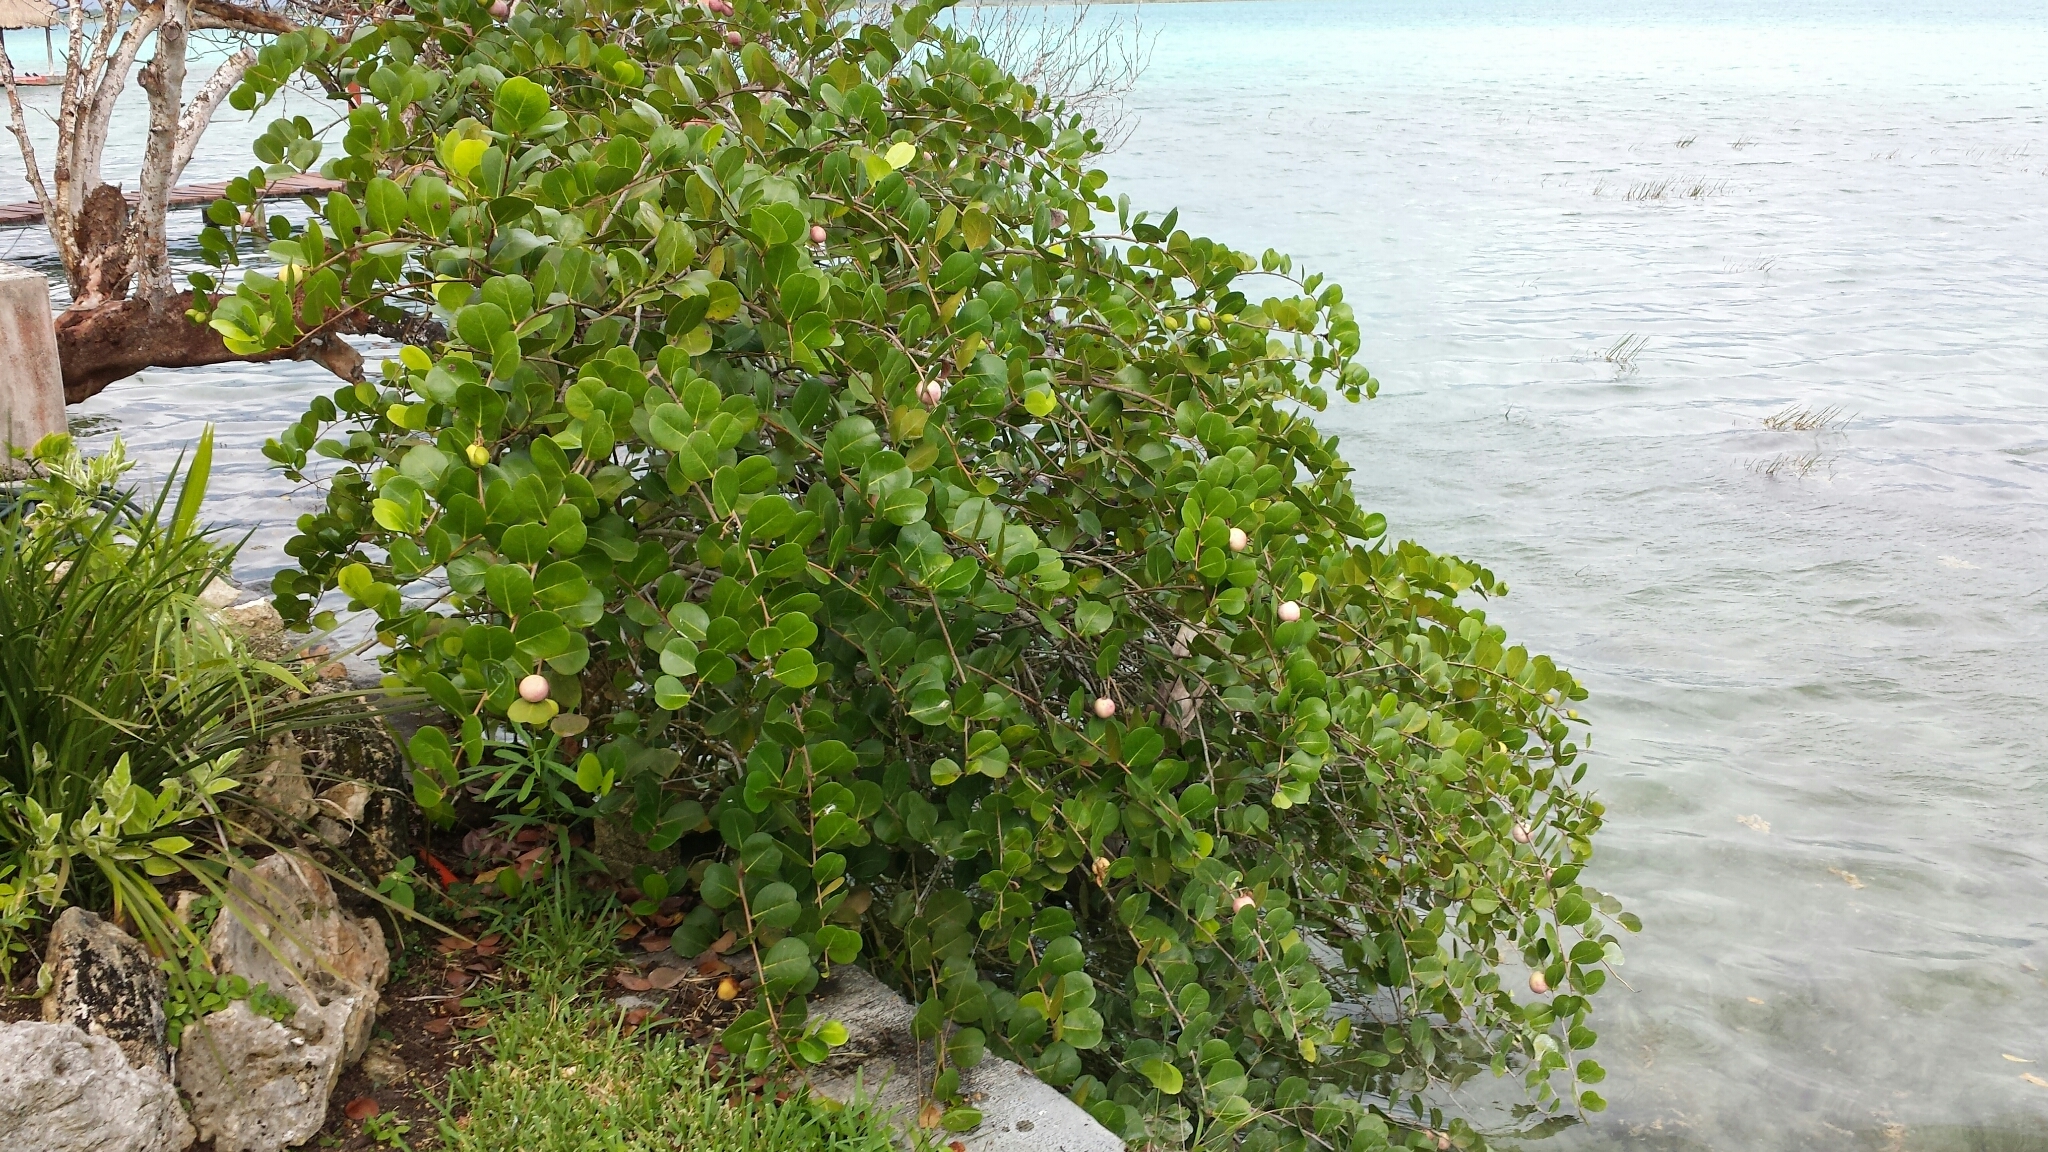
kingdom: Plantae
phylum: Tracheophyta
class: Magnoliopsida
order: Malpighiales
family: Chrysobalanaceae
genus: Chrysobalanus
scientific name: Chrysobalanus icaco
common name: Coco plum
